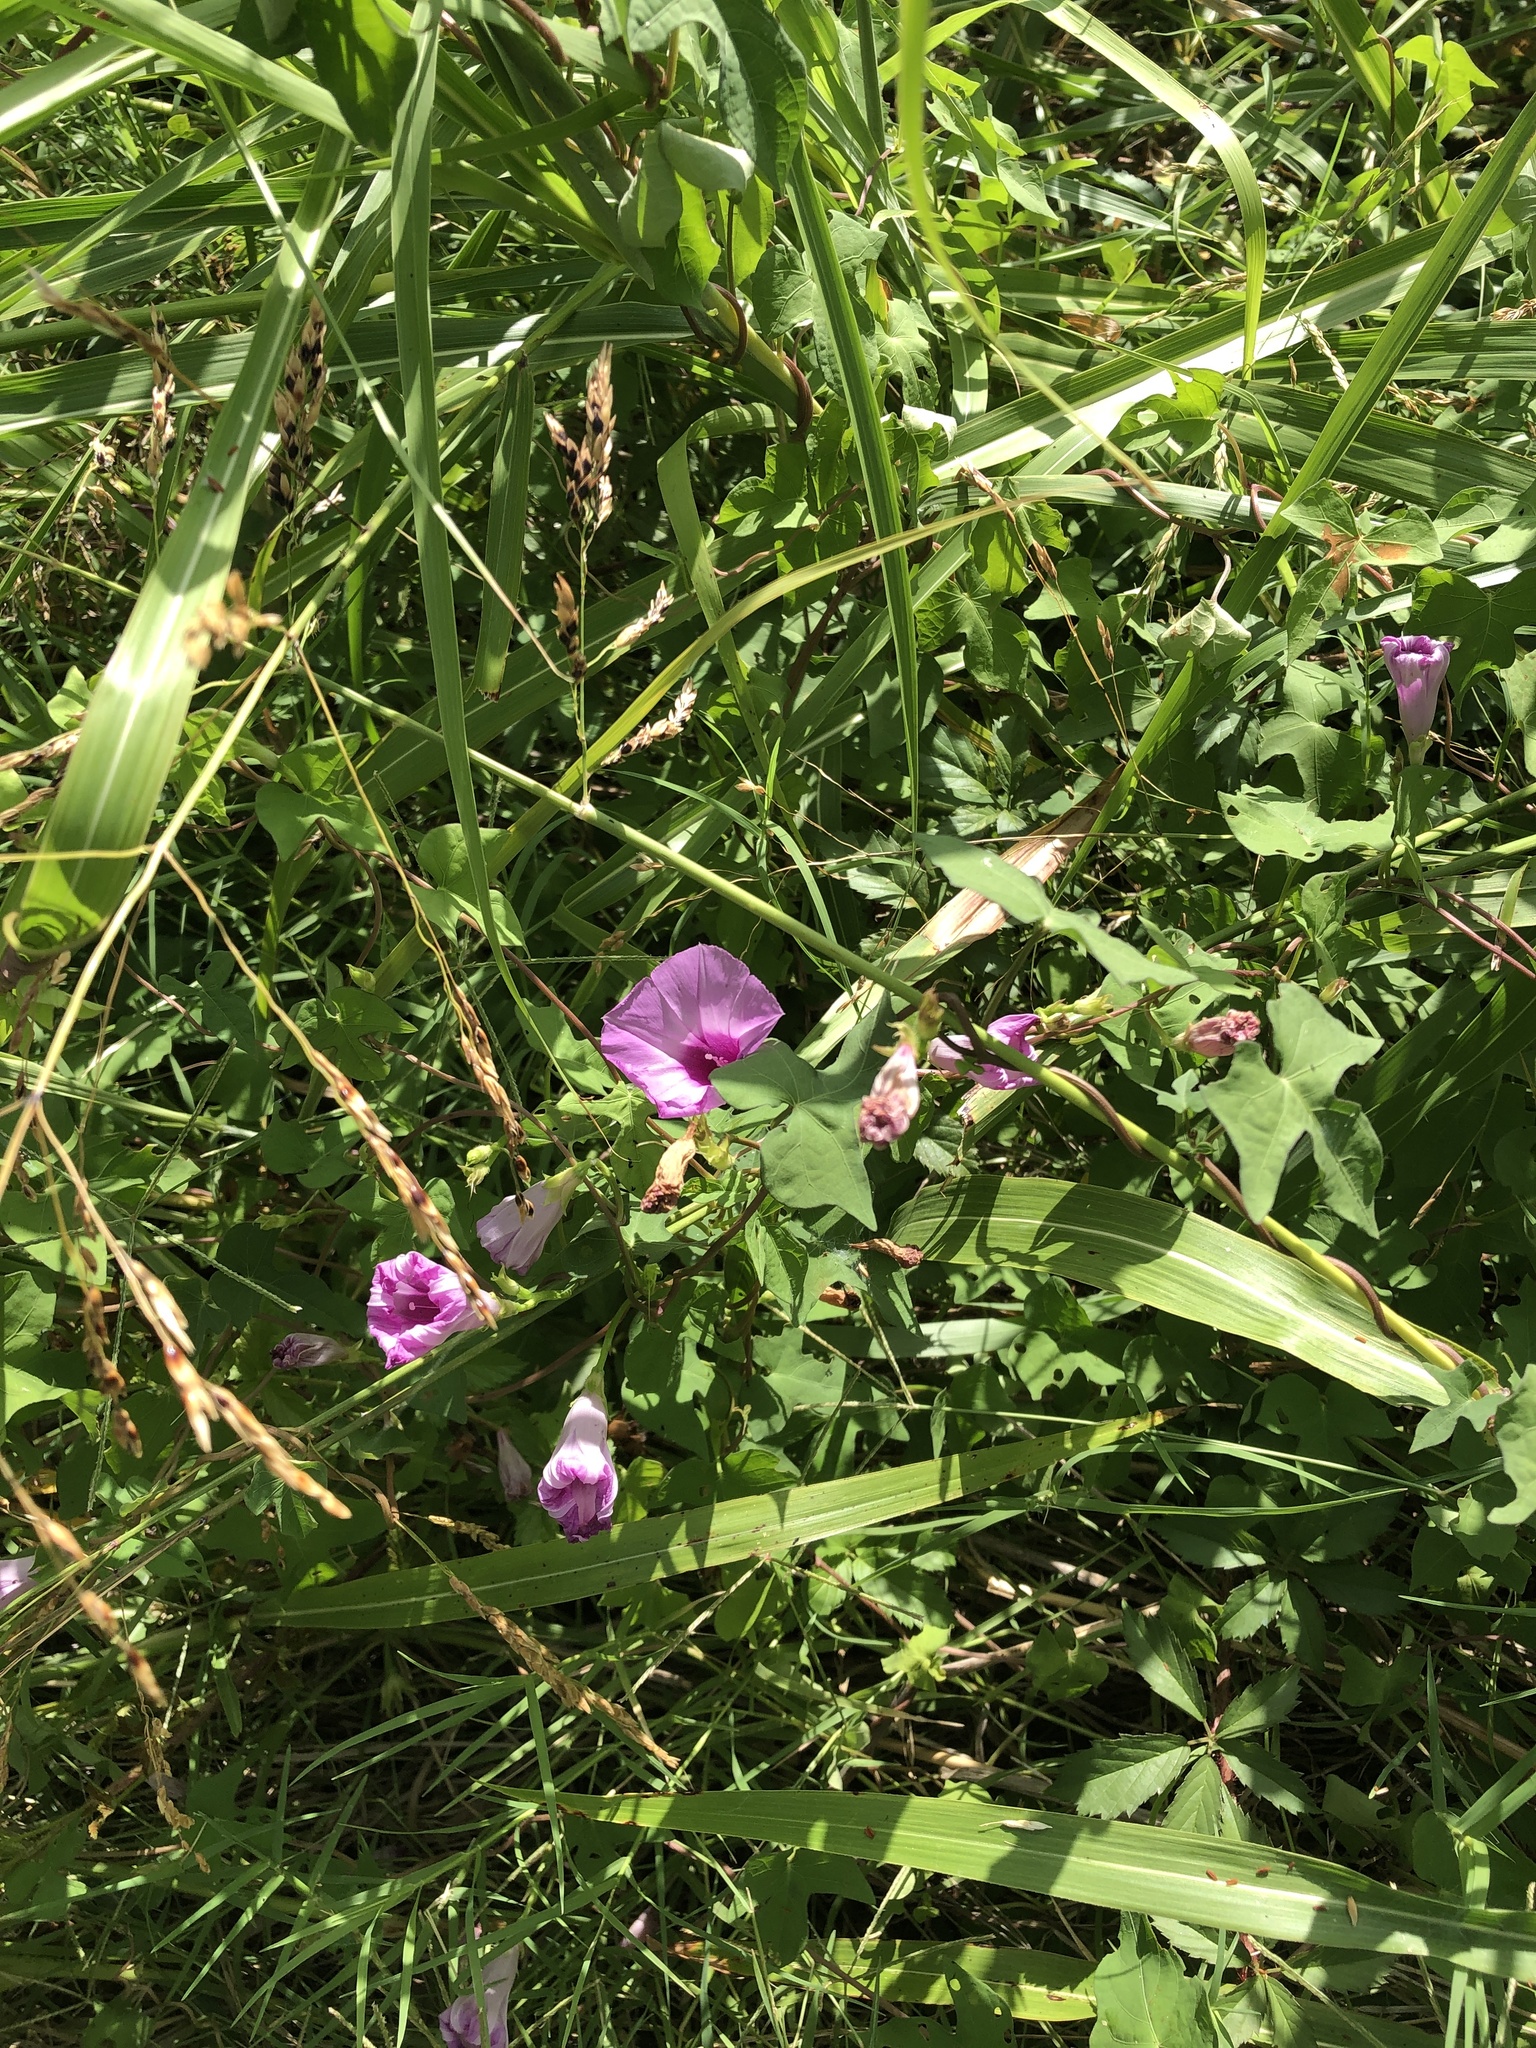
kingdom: Plantae
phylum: Tracheophyta
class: Magnoliopsida
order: Solanales
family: Convolvulaceae
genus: Ipomoea
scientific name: Ipomoea cordatotriloba
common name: Cotton morning glory
